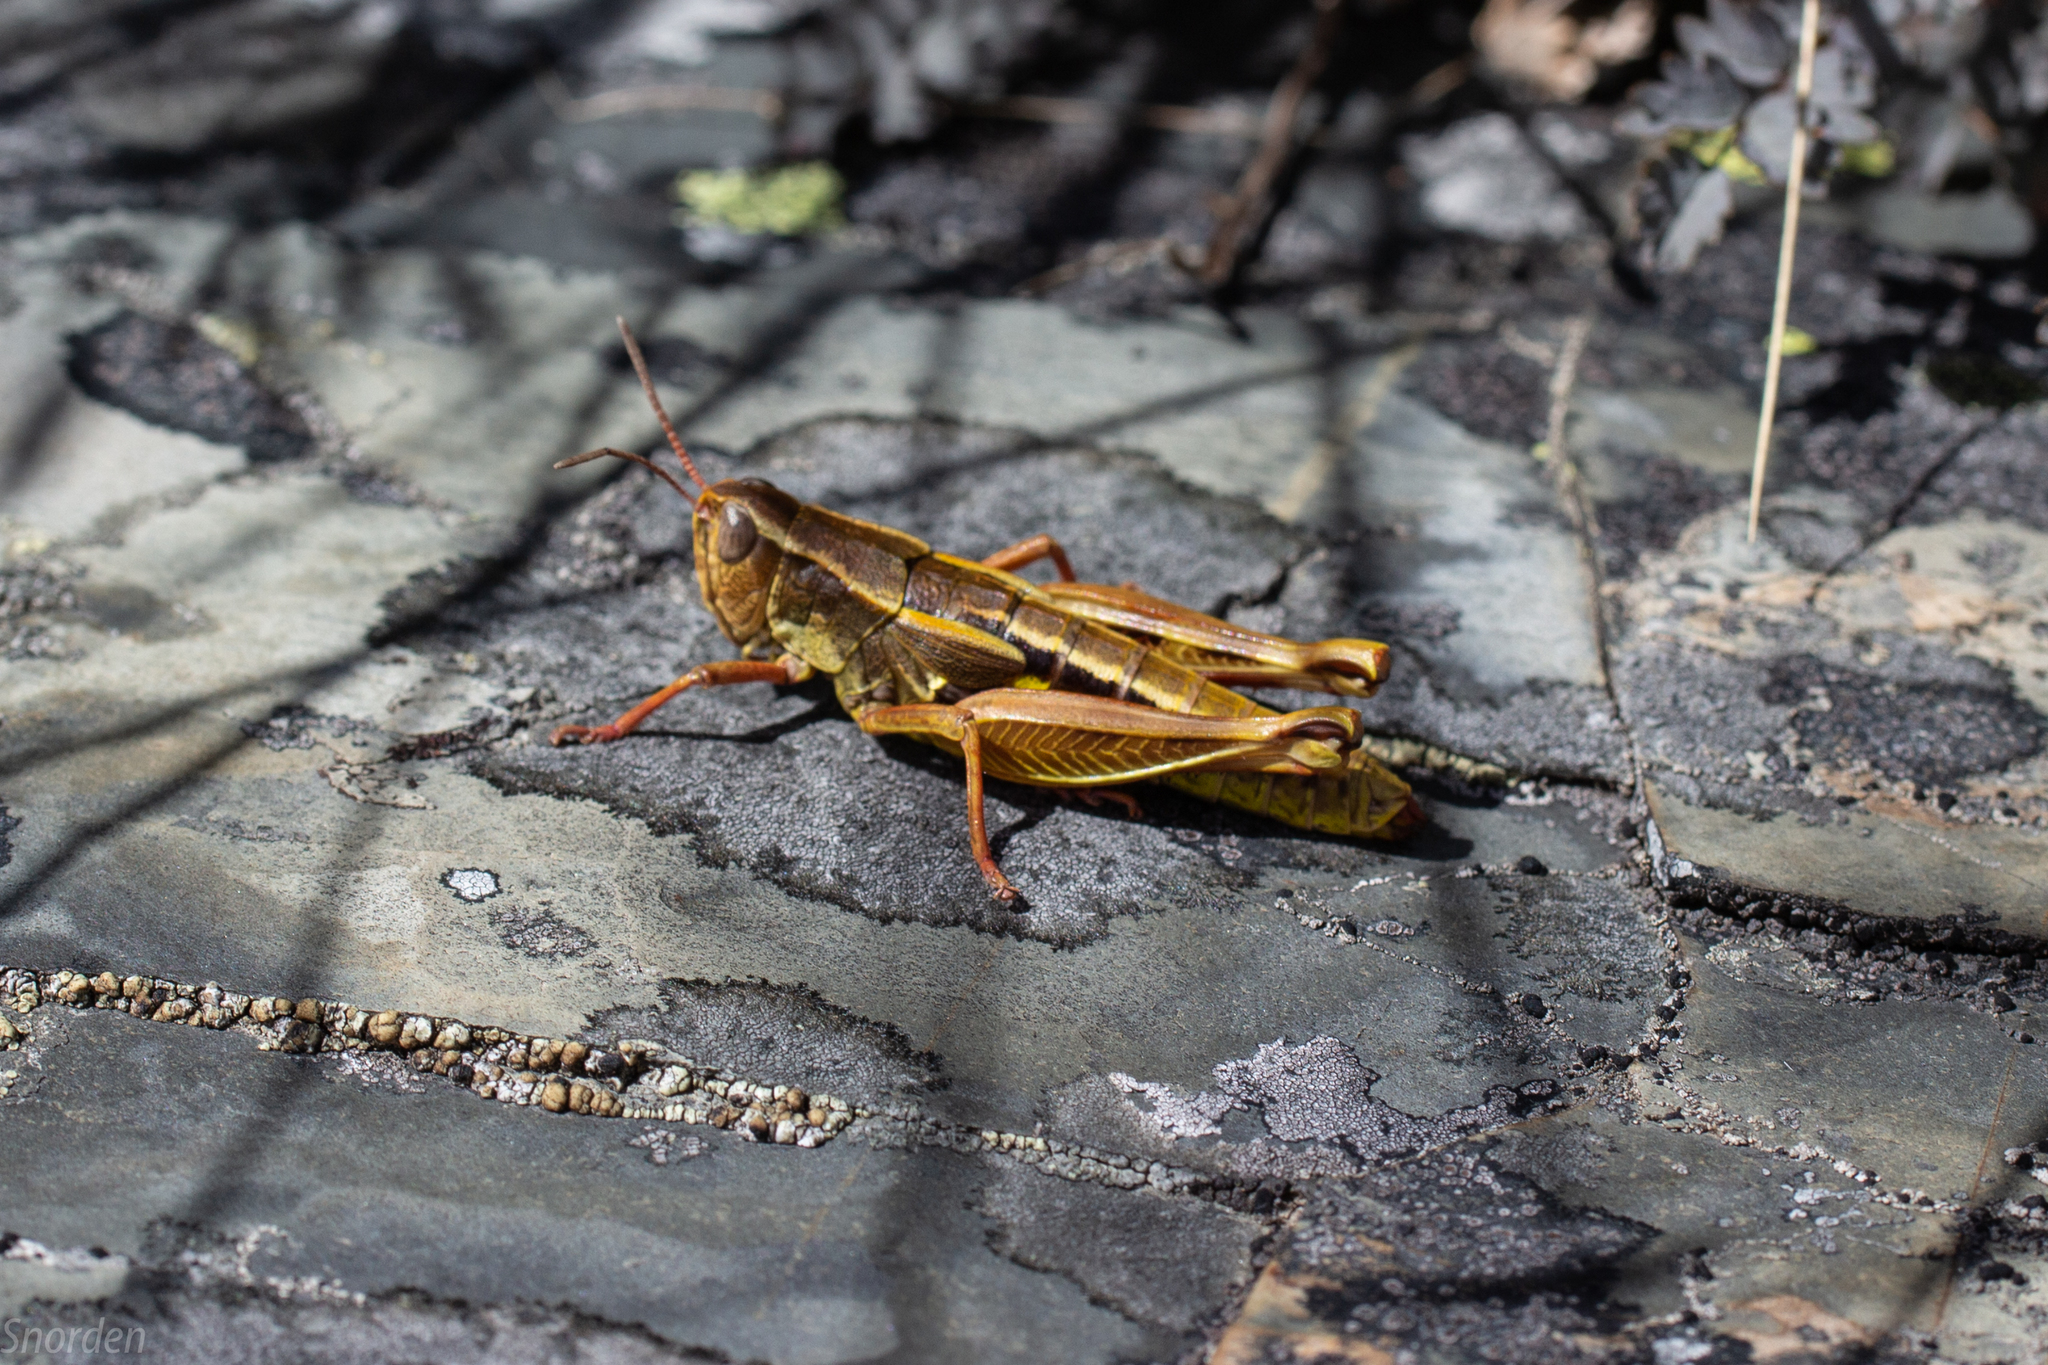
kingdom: Animalia
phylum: Arthropoda
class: Insecta
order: Orthoptera
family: Acrididae
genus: Sigaus
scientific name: Sigaus australis
